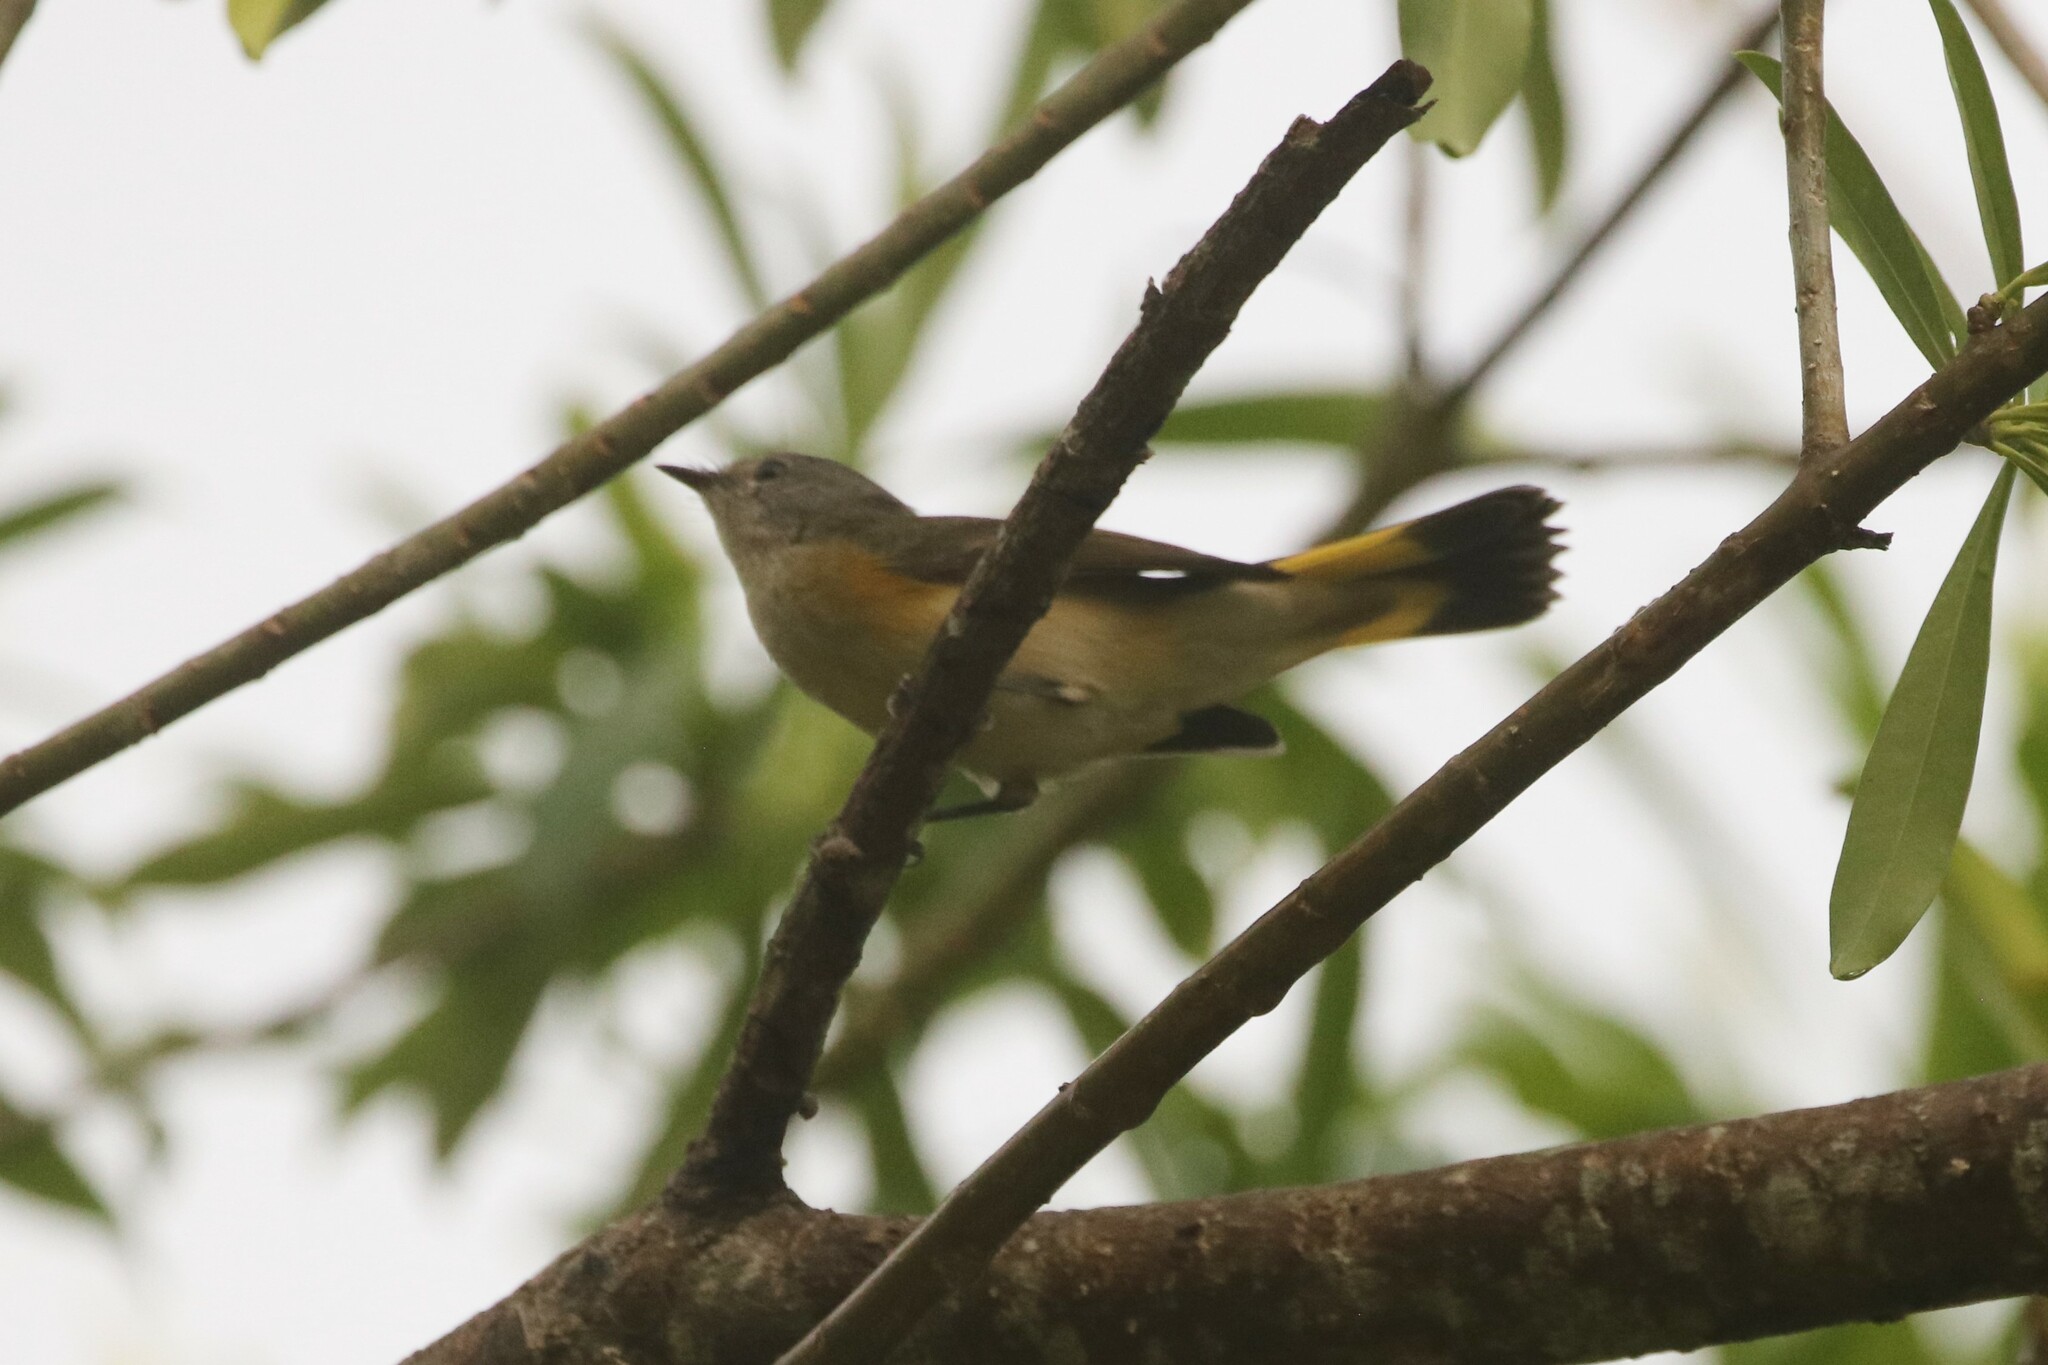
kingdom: Animalia
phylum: Chordata
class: Aves
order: Passeriformes
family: Parulidae
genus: Setophaga
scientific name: Setophaga ruticilla
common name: American redstart
